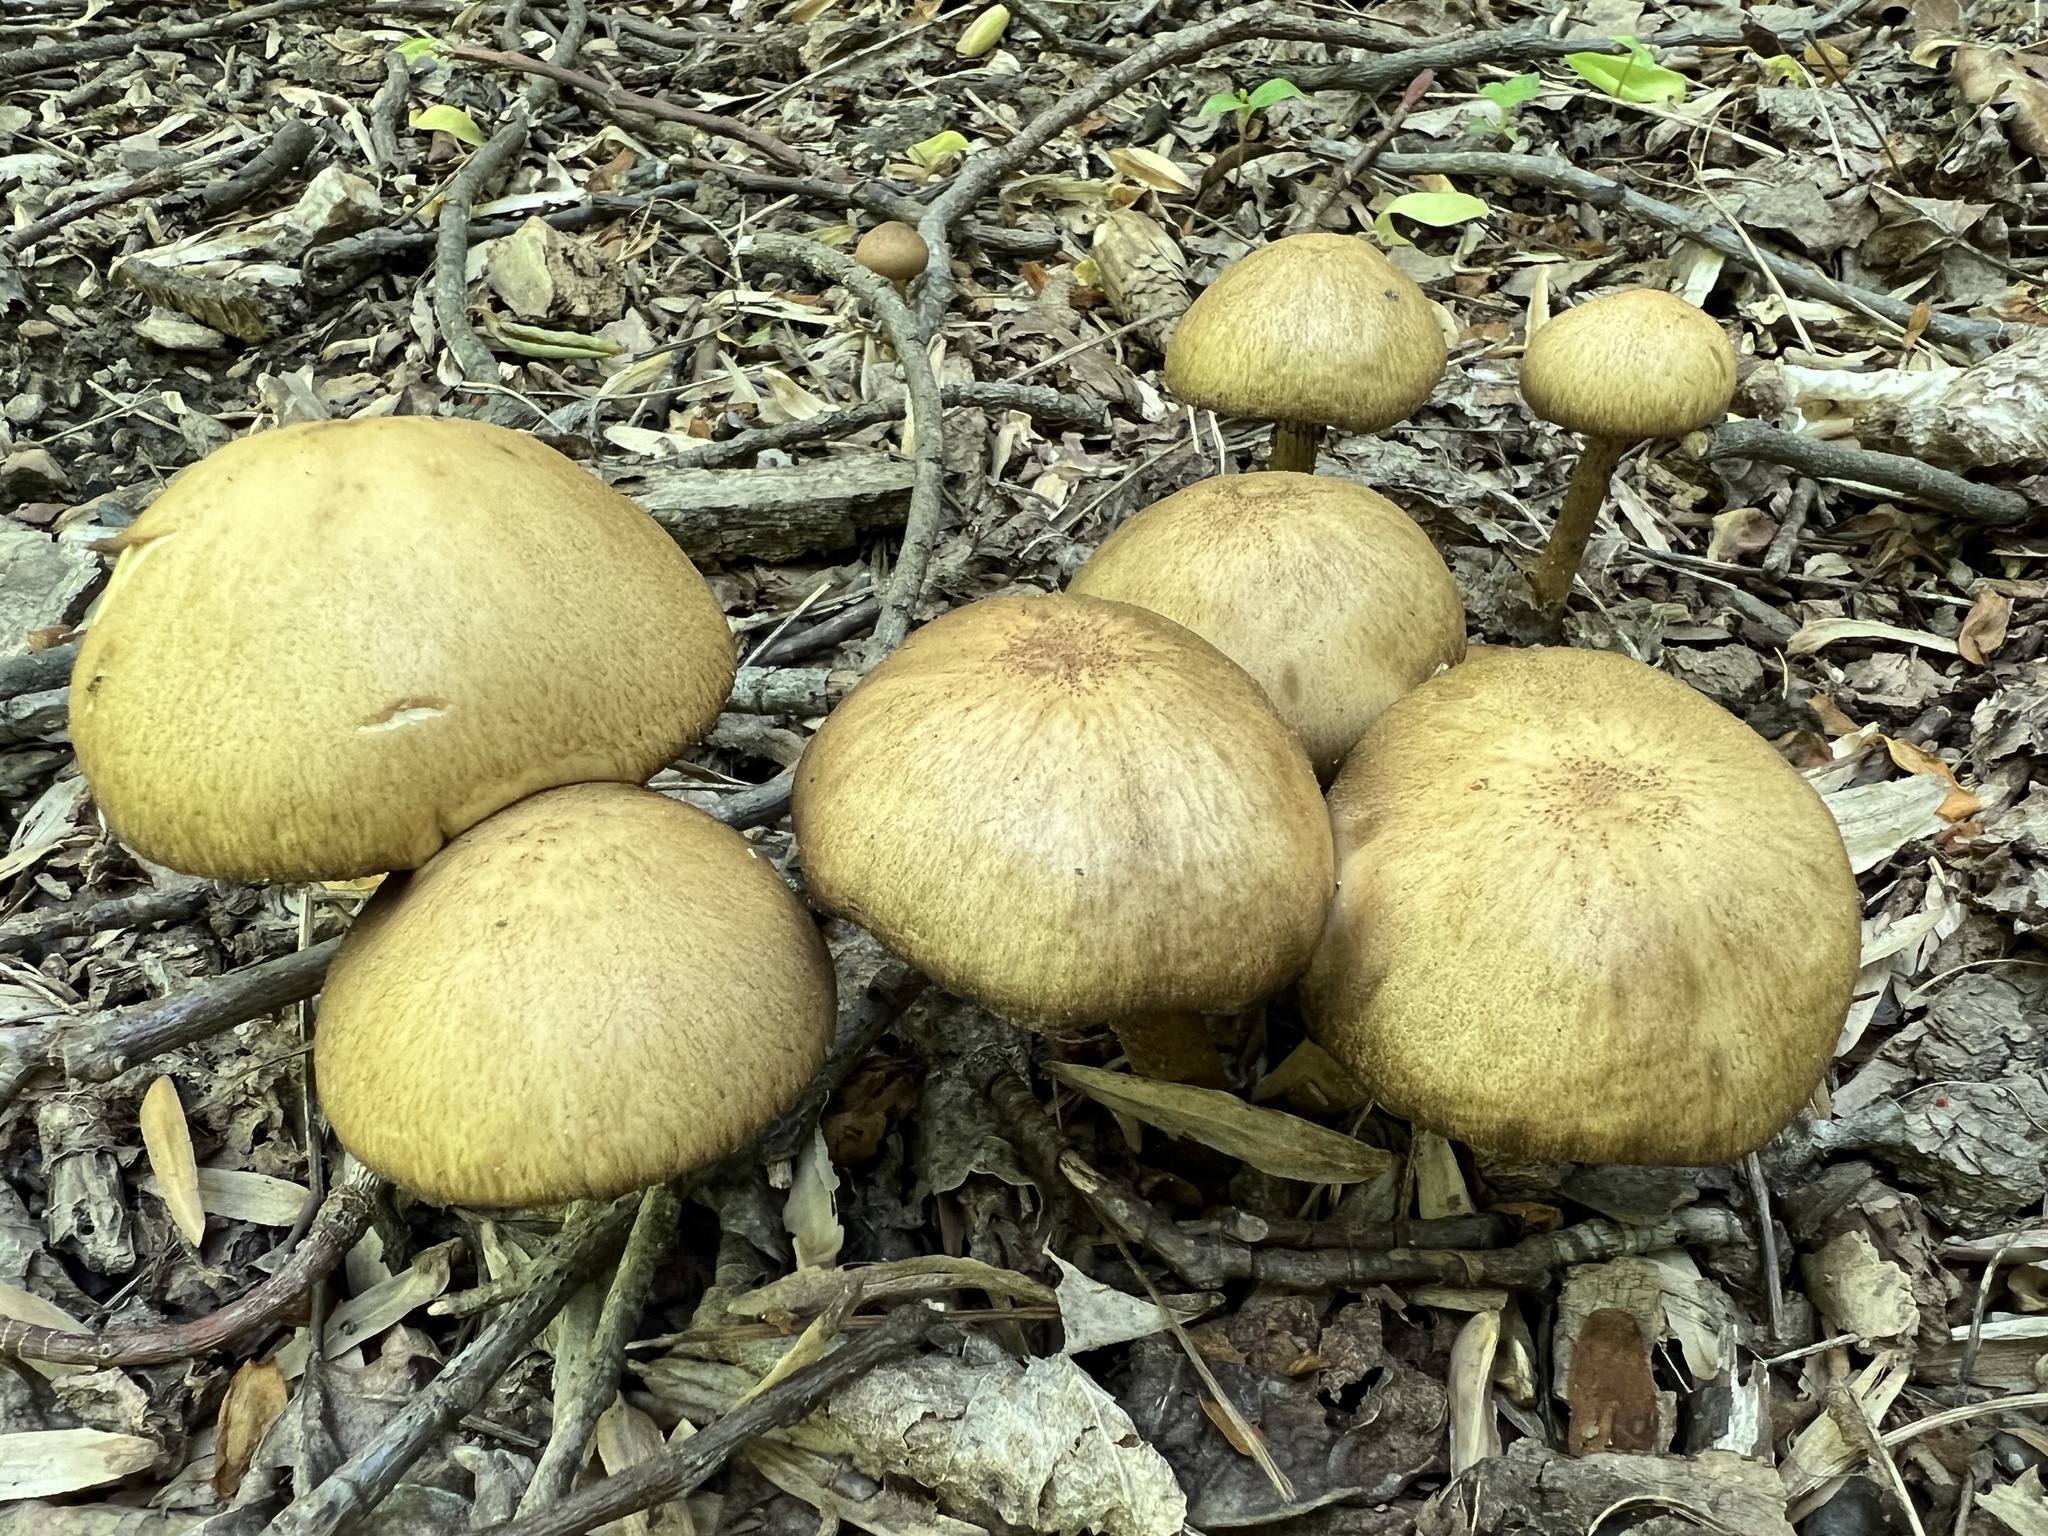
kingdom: Fungi
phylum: Basidiomycota
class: Agaricomycetes
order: Agaricales
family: Psathyrellaceae
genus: Lacrymaria
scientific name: Lacrymaria lacrymabunda
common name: Weeping widow
